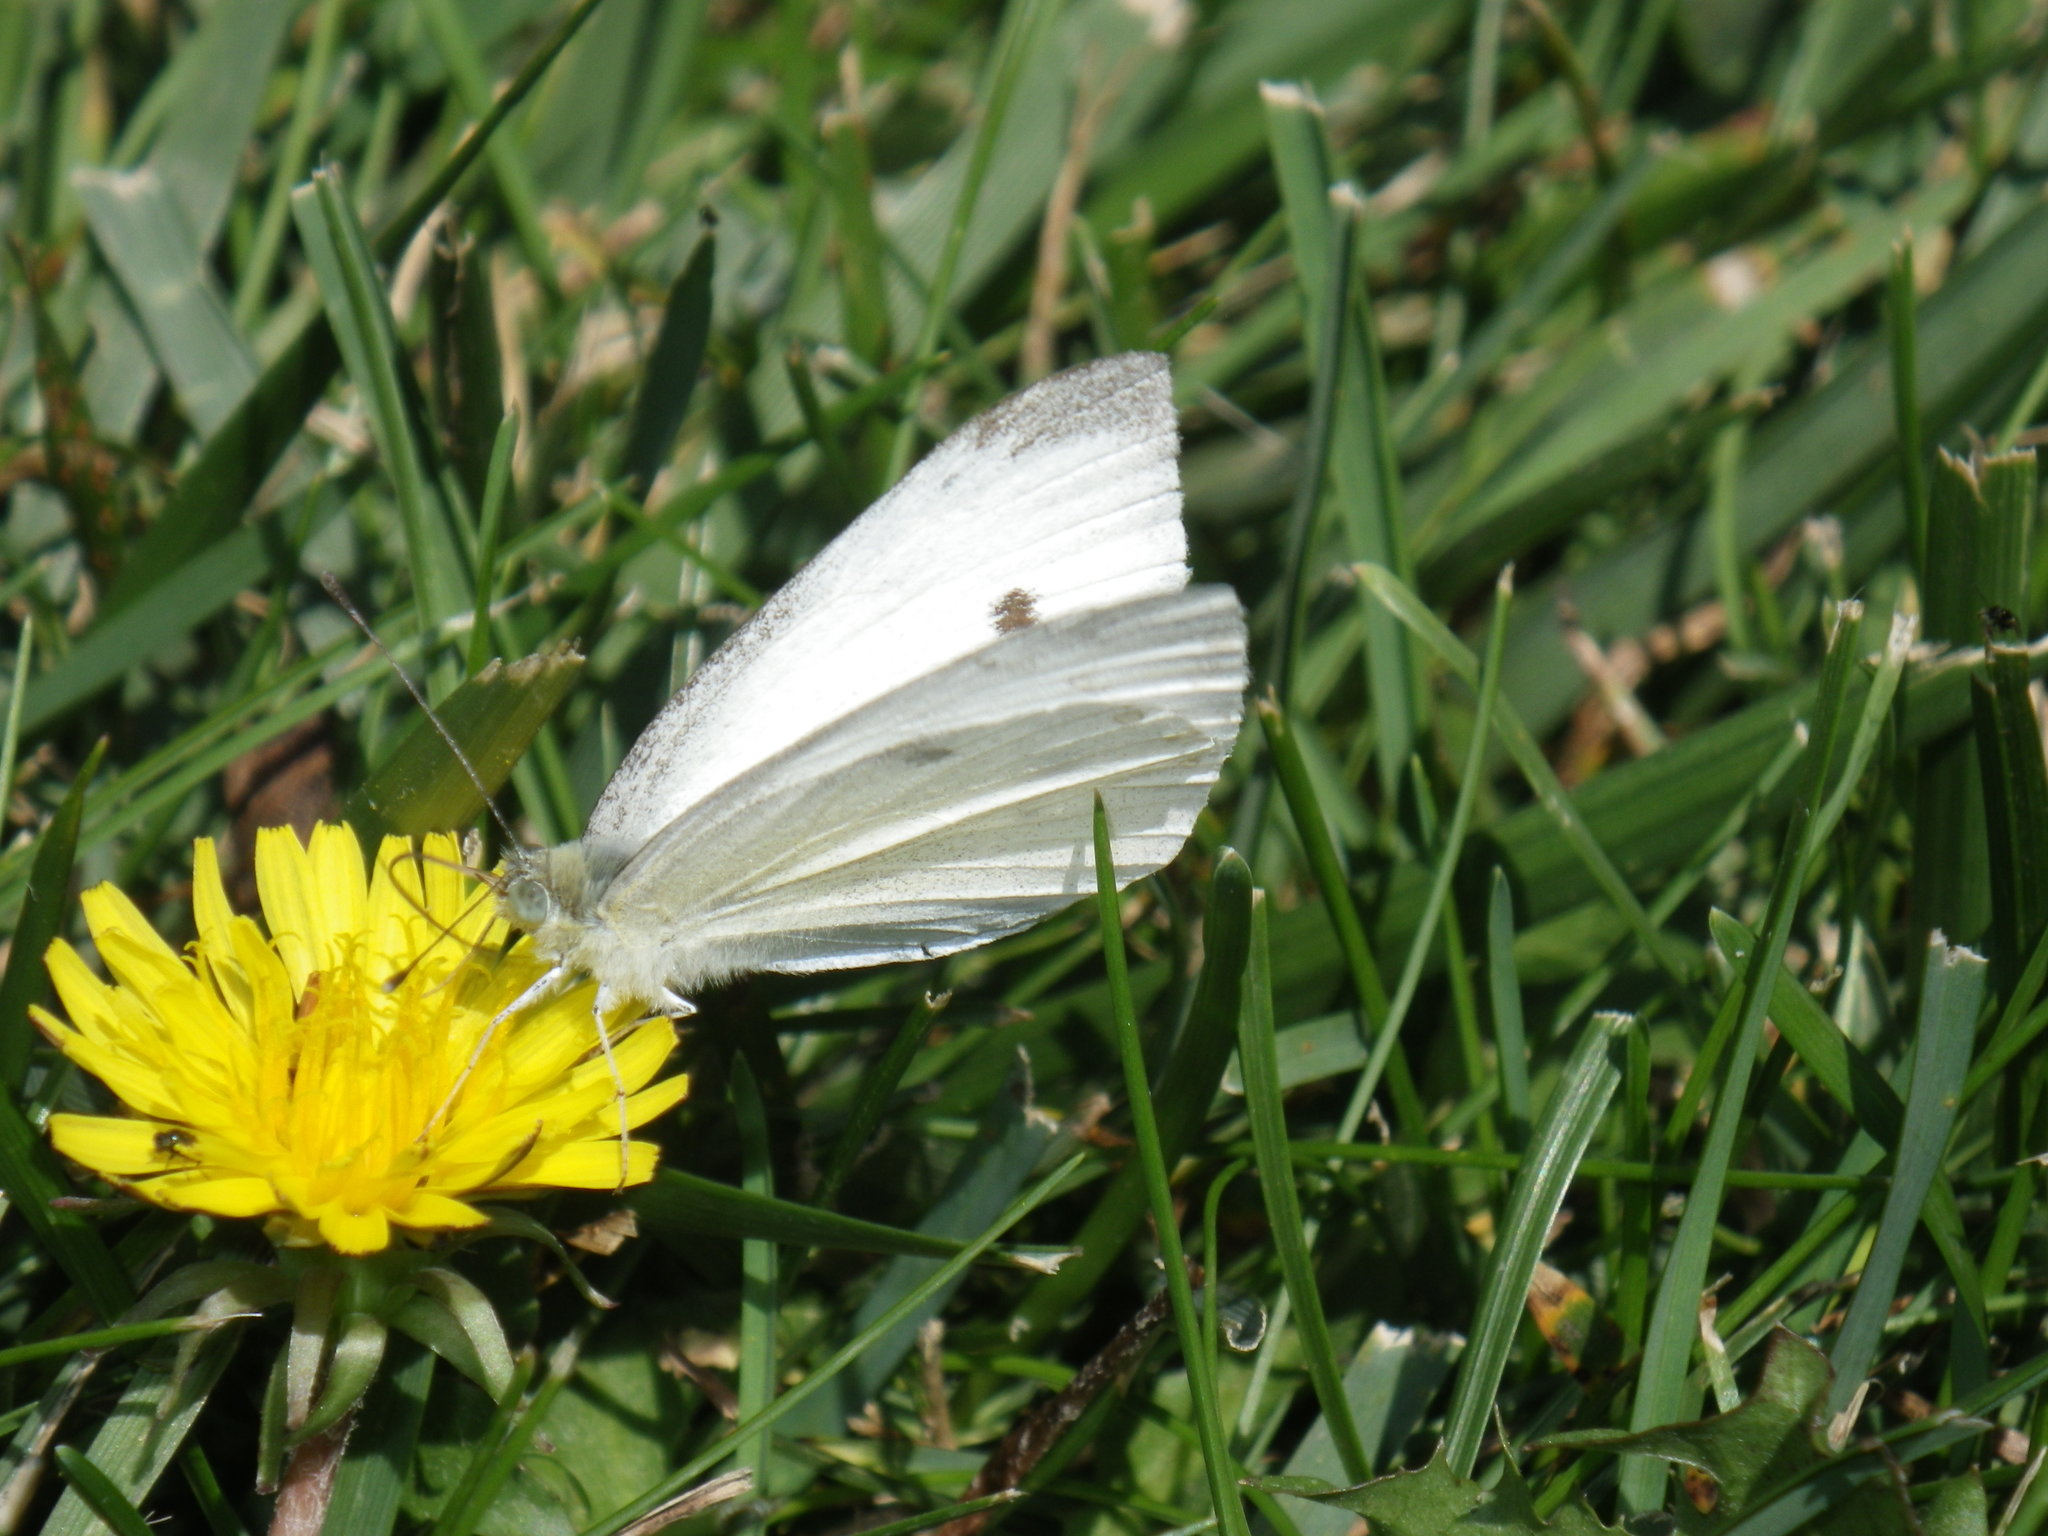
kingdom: Animalia
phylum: Arthropoda
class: Insecta
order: Lepidoptera
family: Pieridae
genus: Pieris
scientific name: Pieris rapae
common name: Small white
